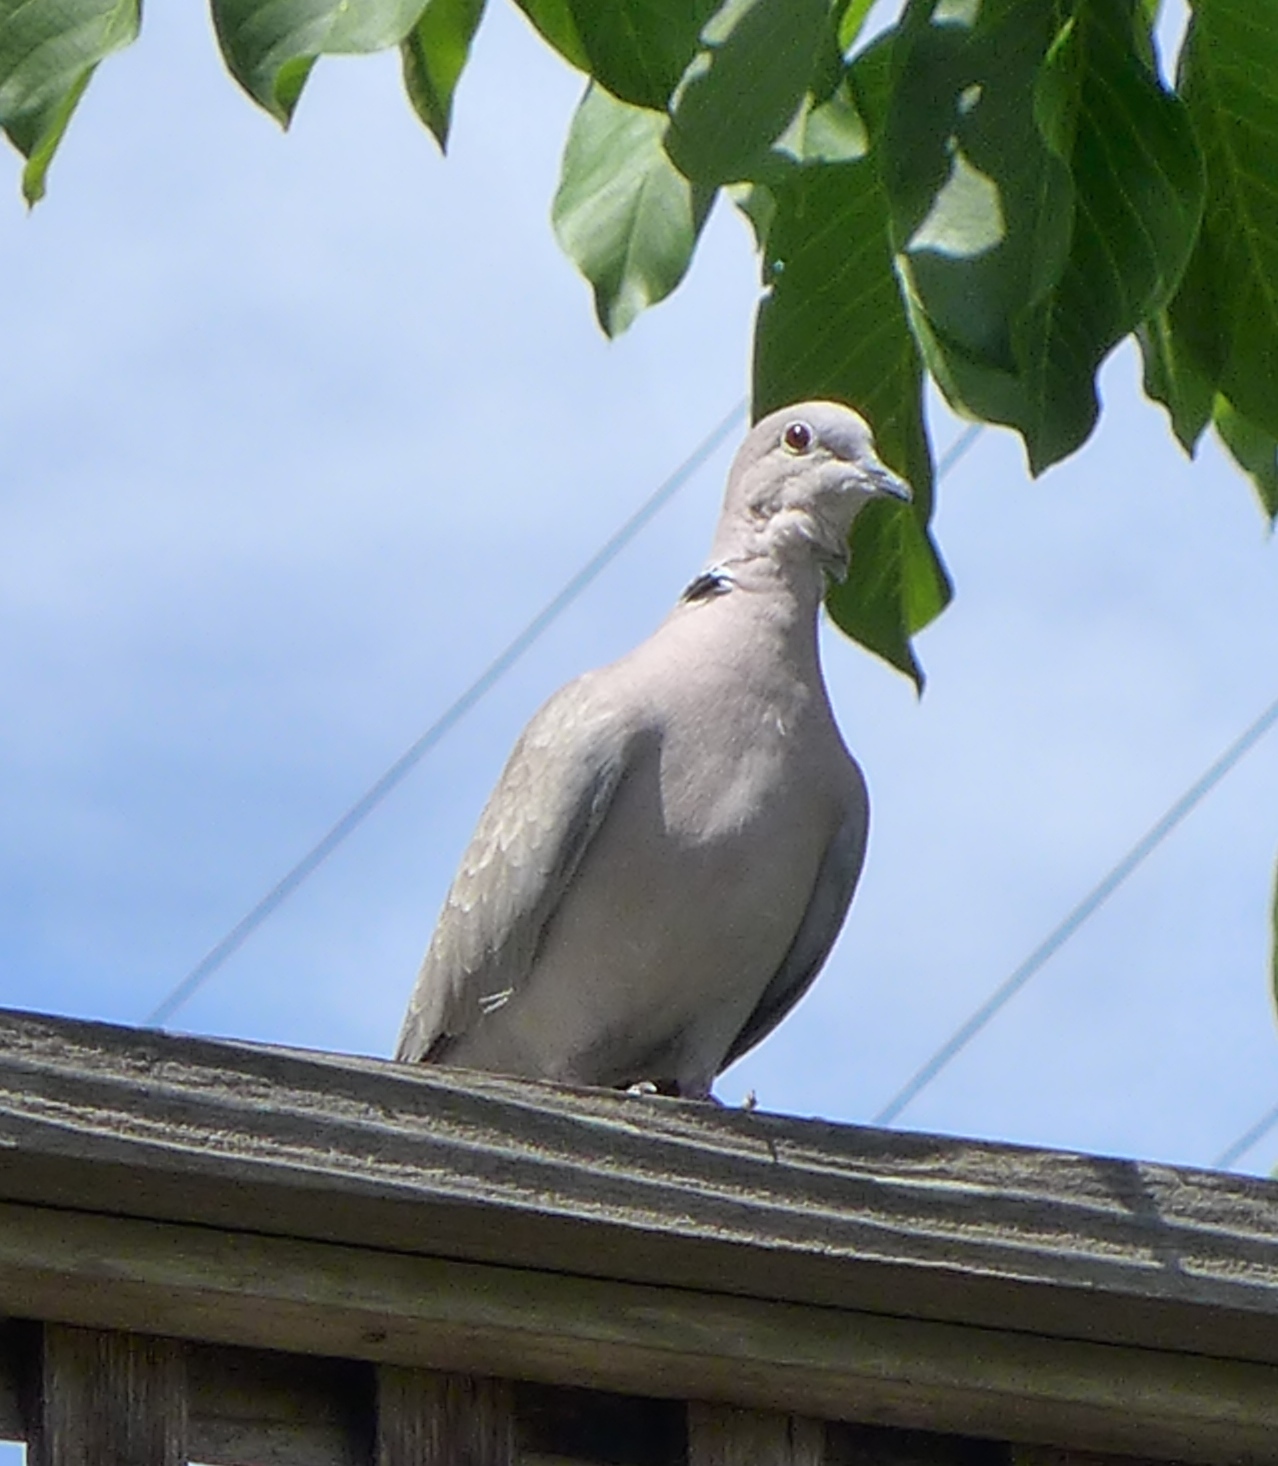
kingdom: Animalia
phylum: Chordata
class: Aves
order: Columbiformes
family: Columbidae
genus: Streptopelia
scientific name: Streptopelia decaocto
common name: Eurasian collared dove
